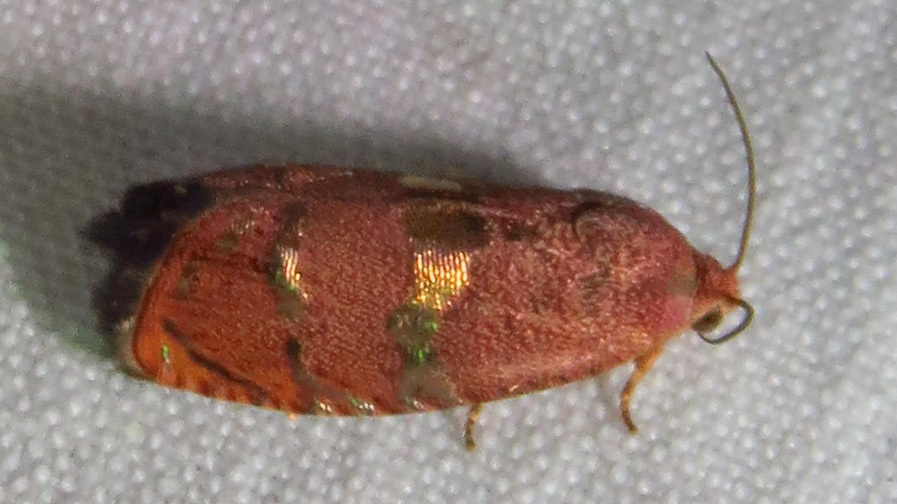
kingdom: Animalia
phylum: Arthropoda
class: Insecta
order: Lepidoptera
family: Tortricidae
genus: Cydia
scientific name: Cydia latiferreana
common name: Filbertworm moth
